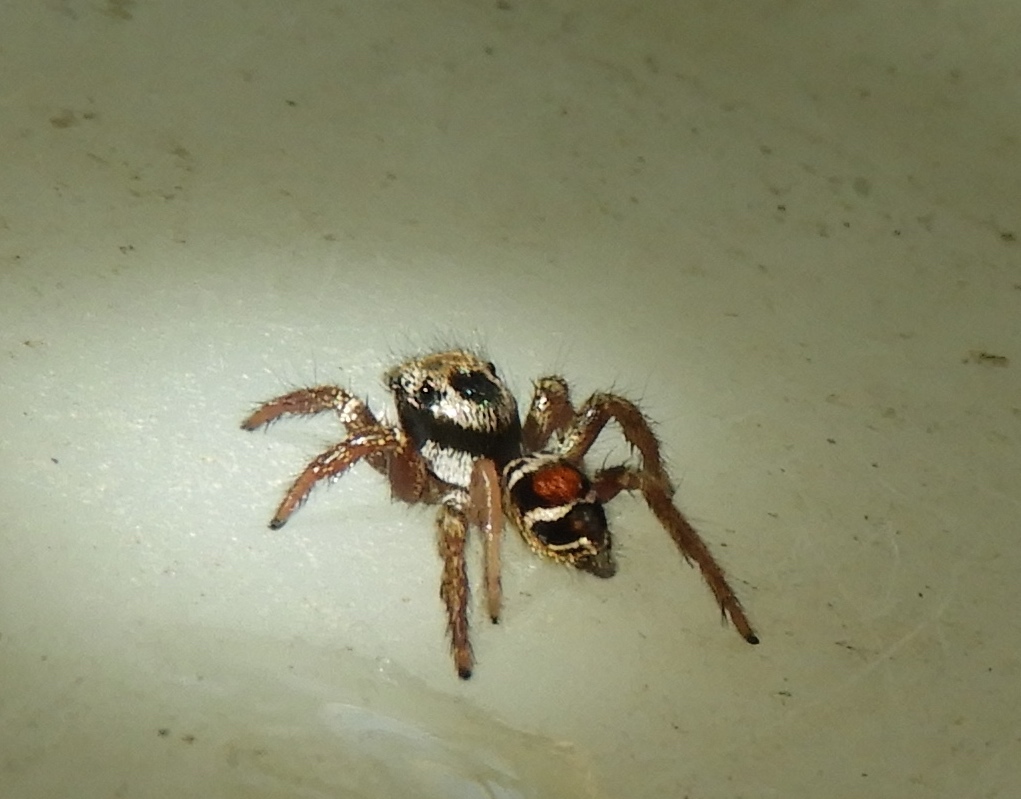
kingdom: Animalia
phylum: Arthropoda
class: Arachnida
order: Araneae
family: Salticidae
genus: Corythalia
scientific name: Corythalia opima
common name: Jumping spiders
